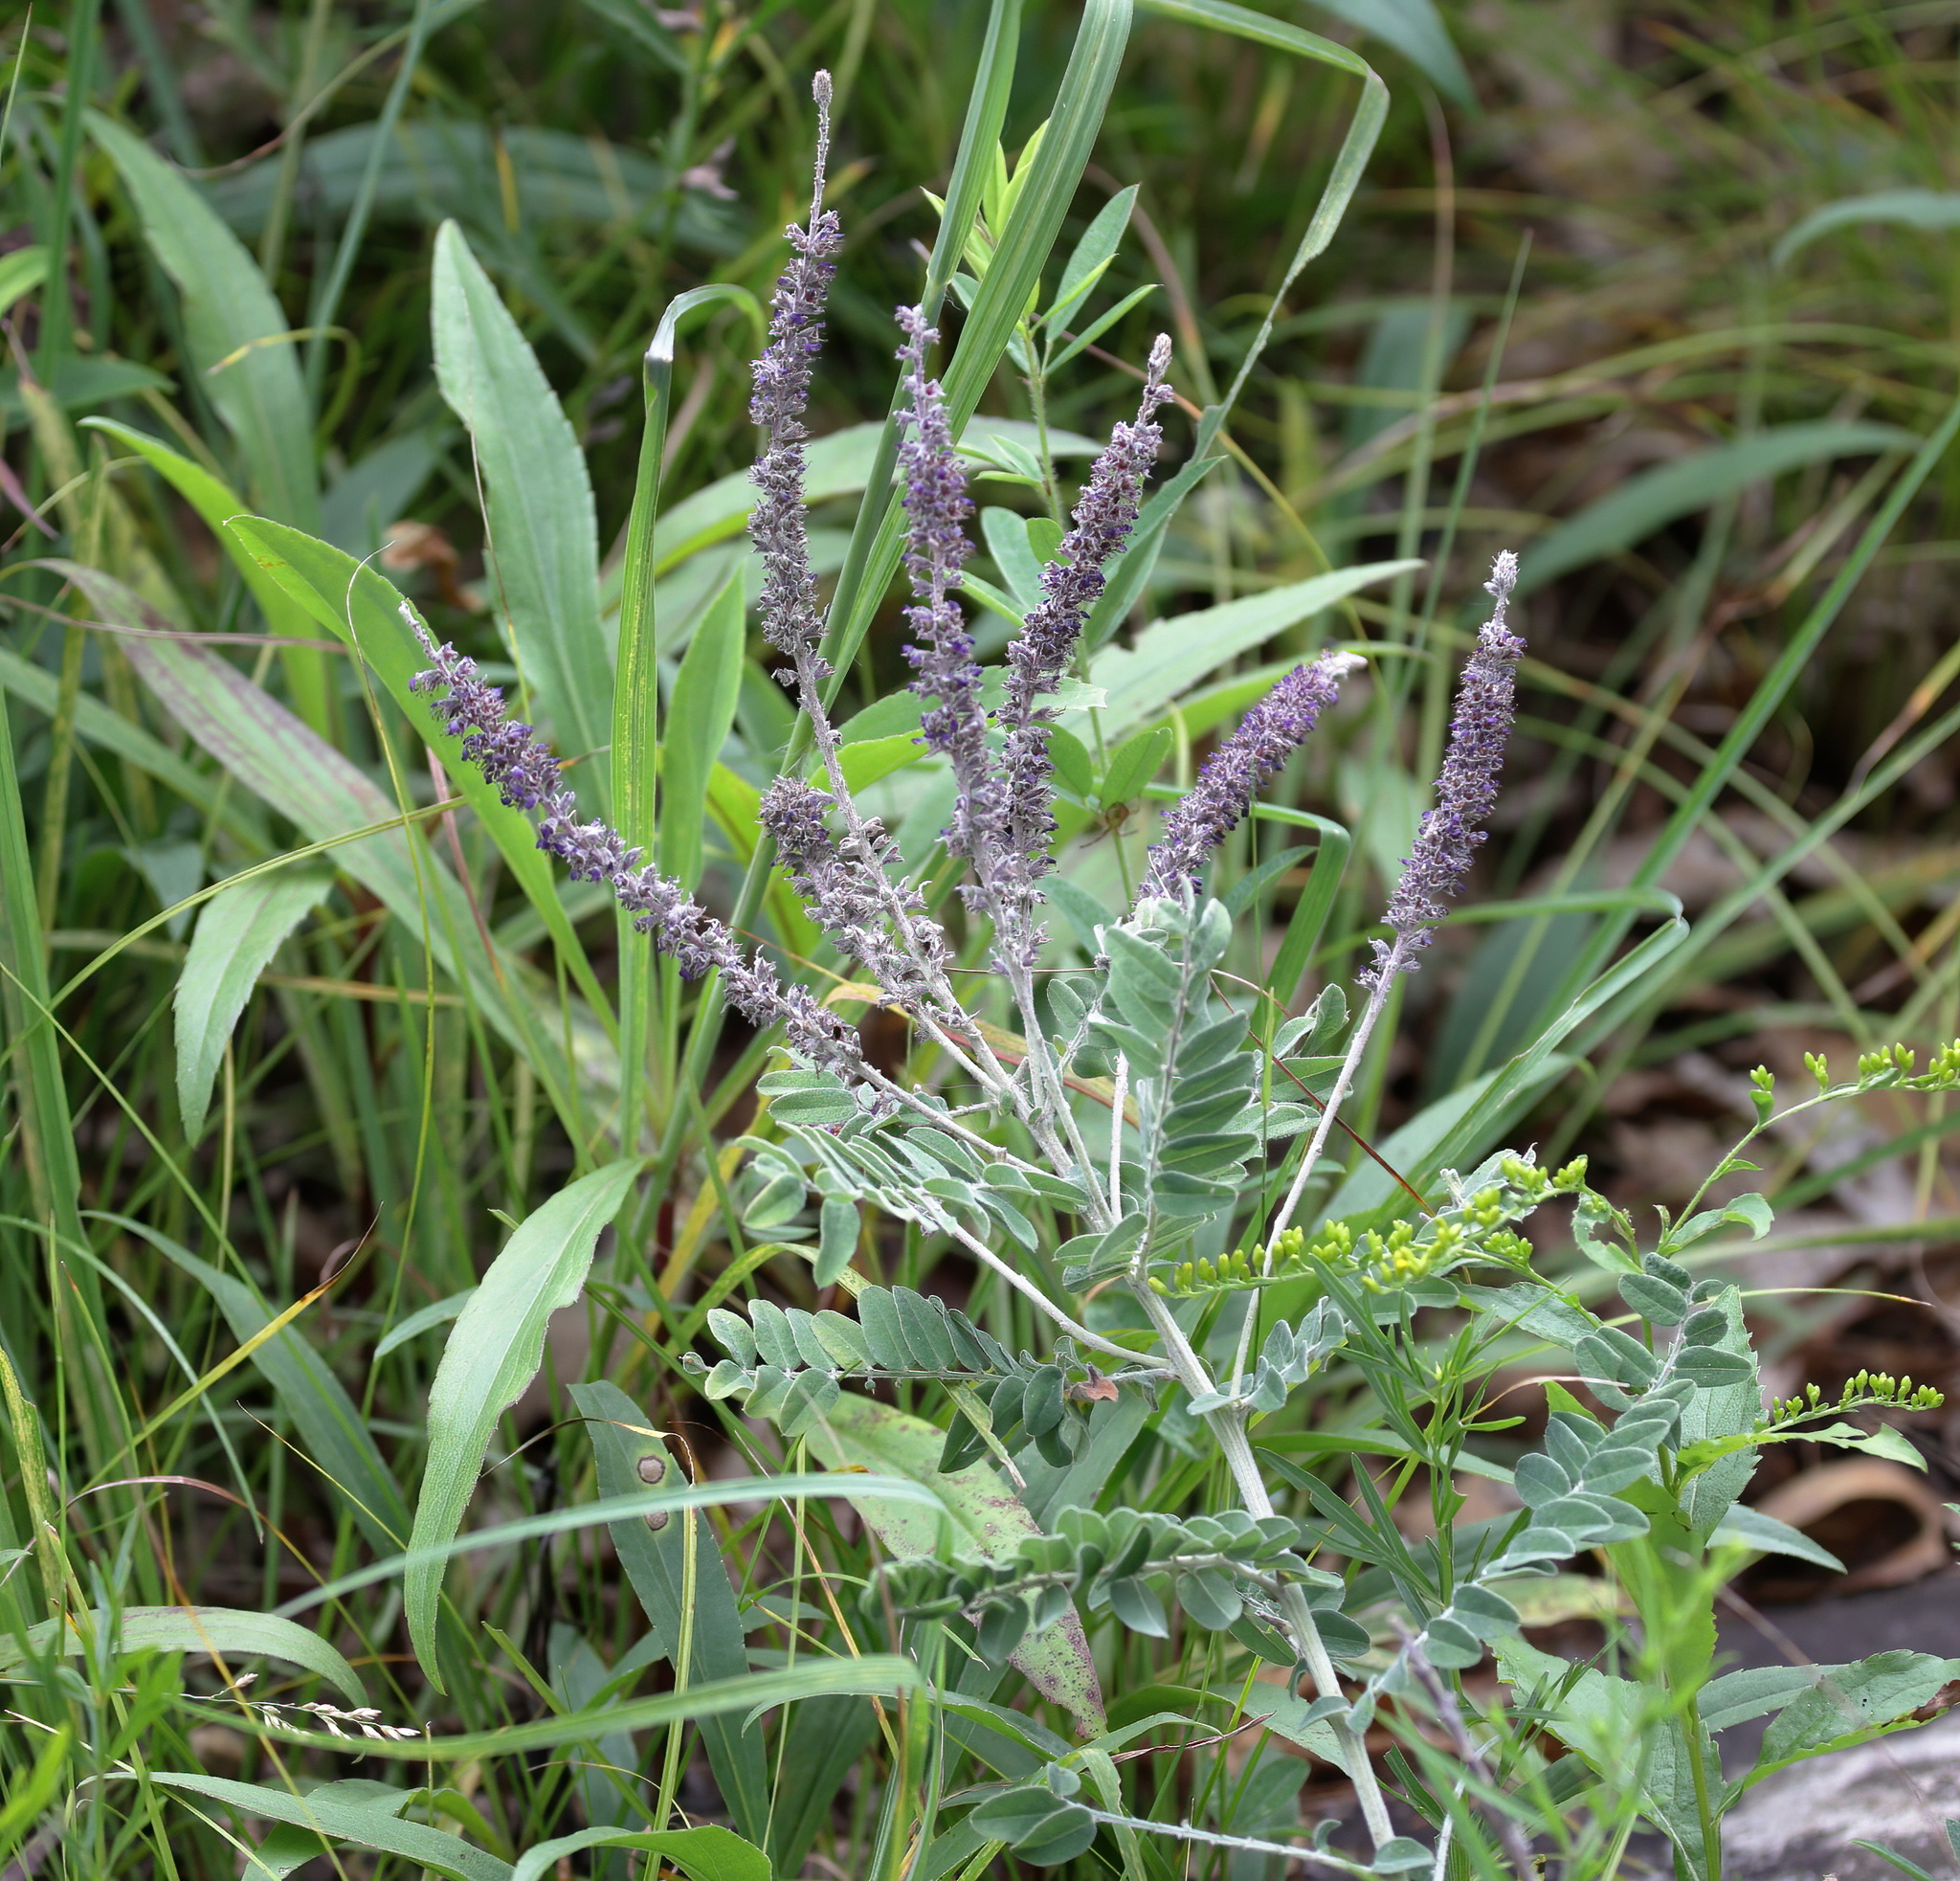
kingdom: Plantae
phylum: Tracheophyta
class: Magnoliopsida
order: Fabales
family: Fabaceae
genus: Amorpha
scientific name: Amorpha canescens
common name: Leadplant
